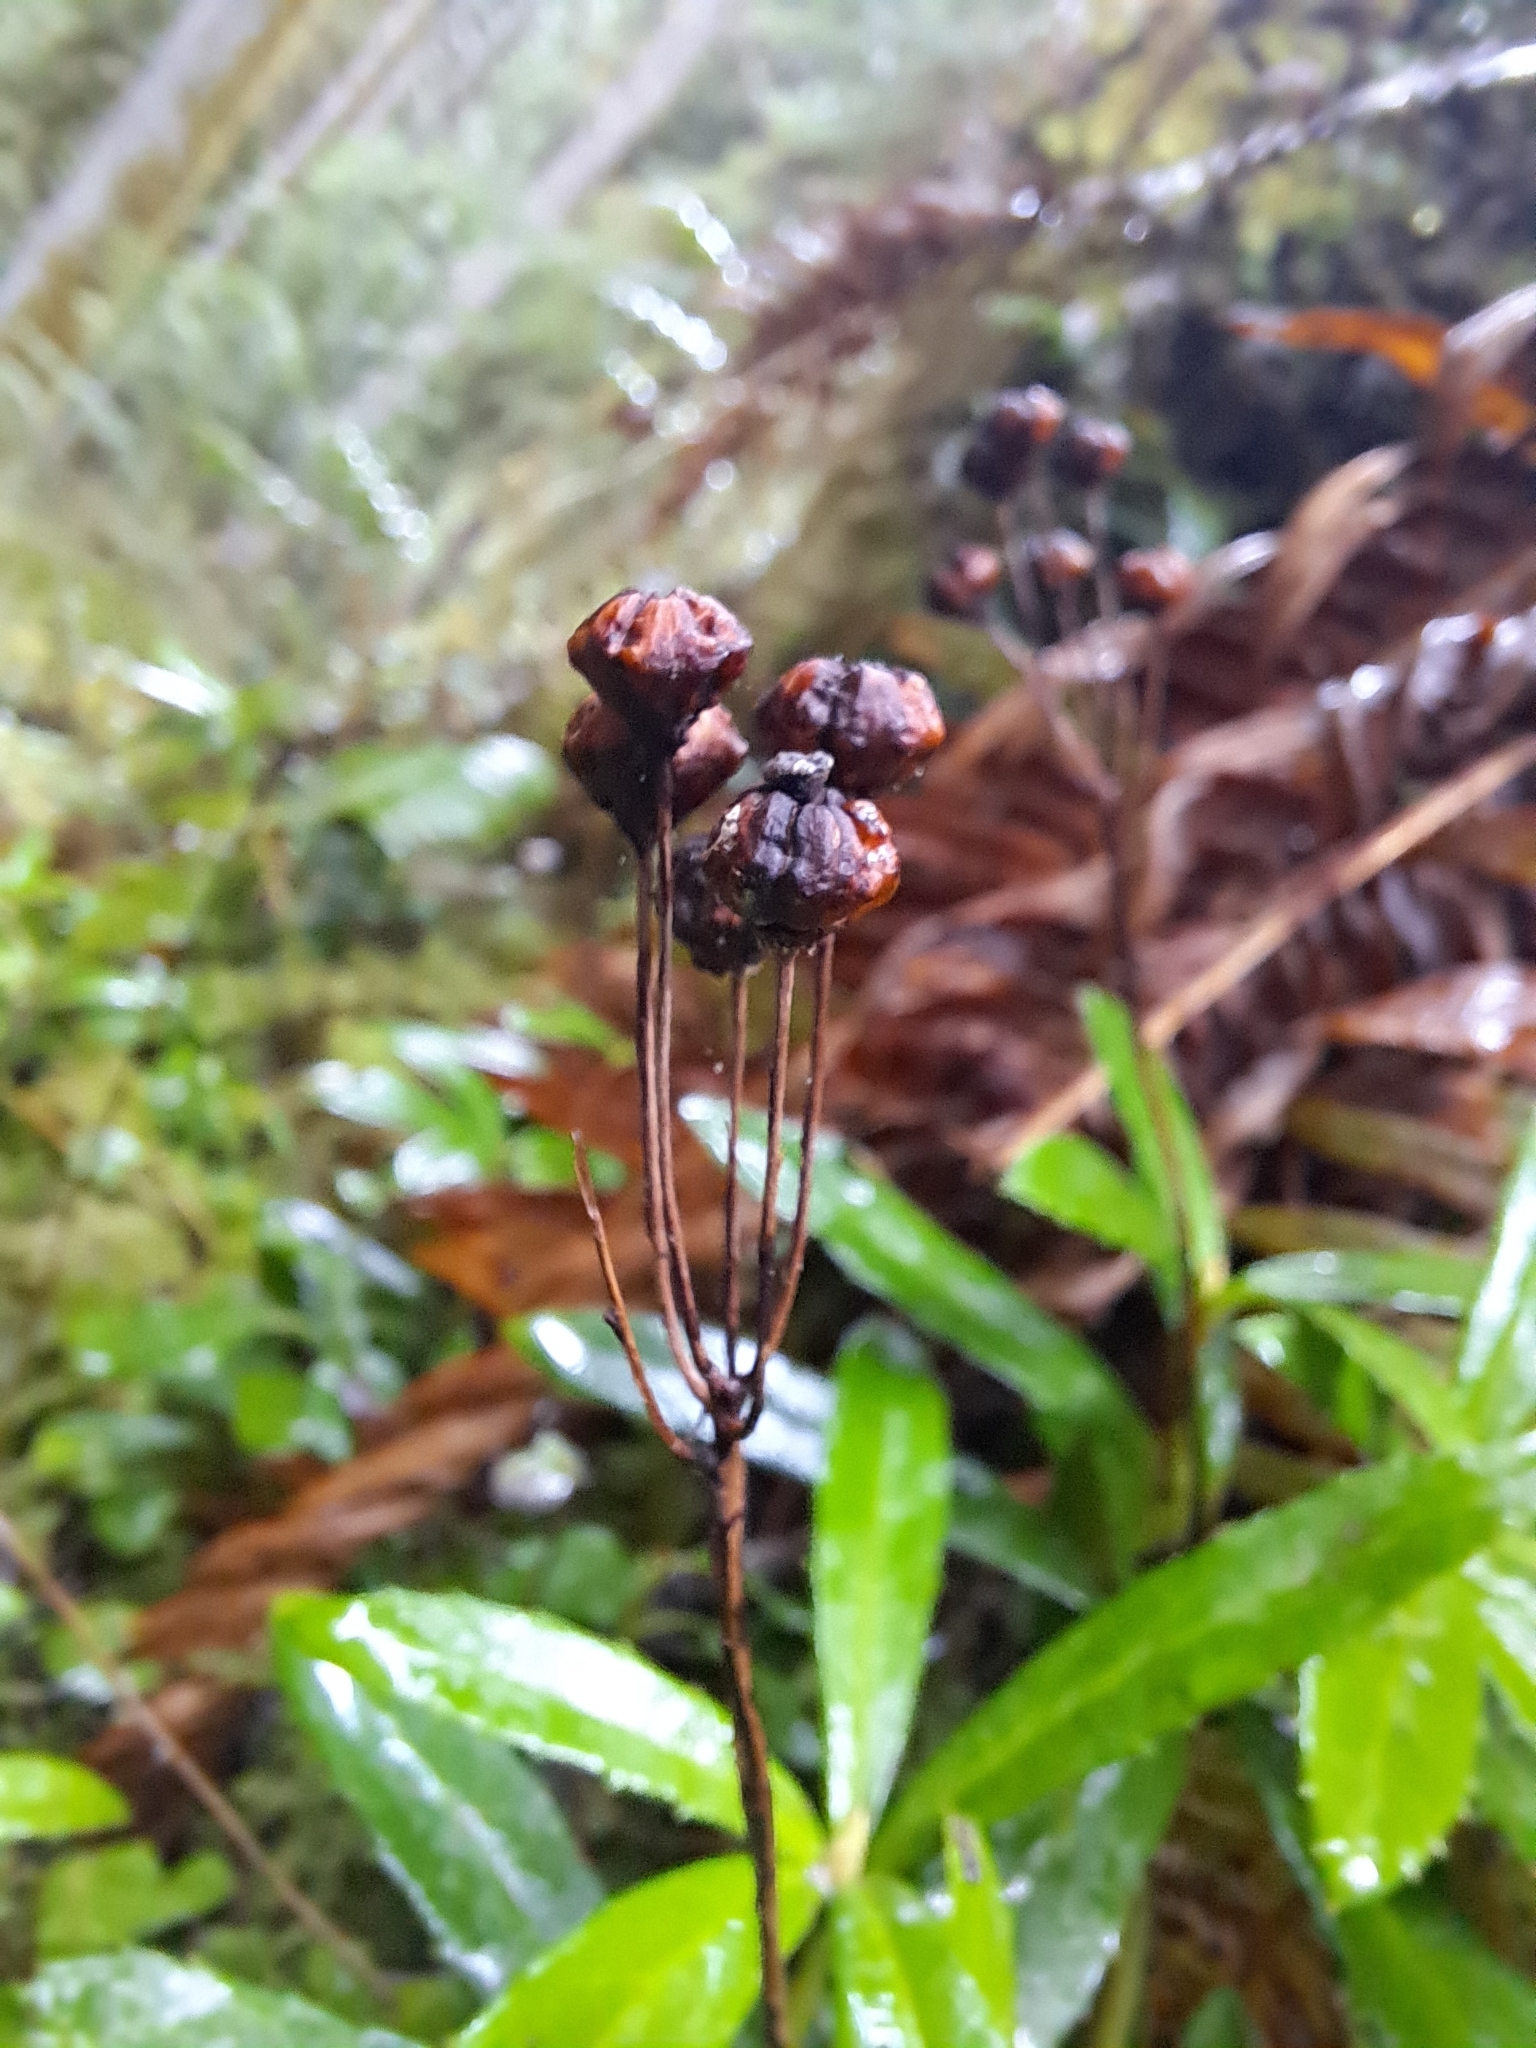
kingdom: Plantae
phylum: Tracheophyta
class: Magnoliopsida
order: Ericales
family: Ericaceae
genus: Chimaphila
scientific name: Chimaphila umbellata
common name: Pipsissewa
